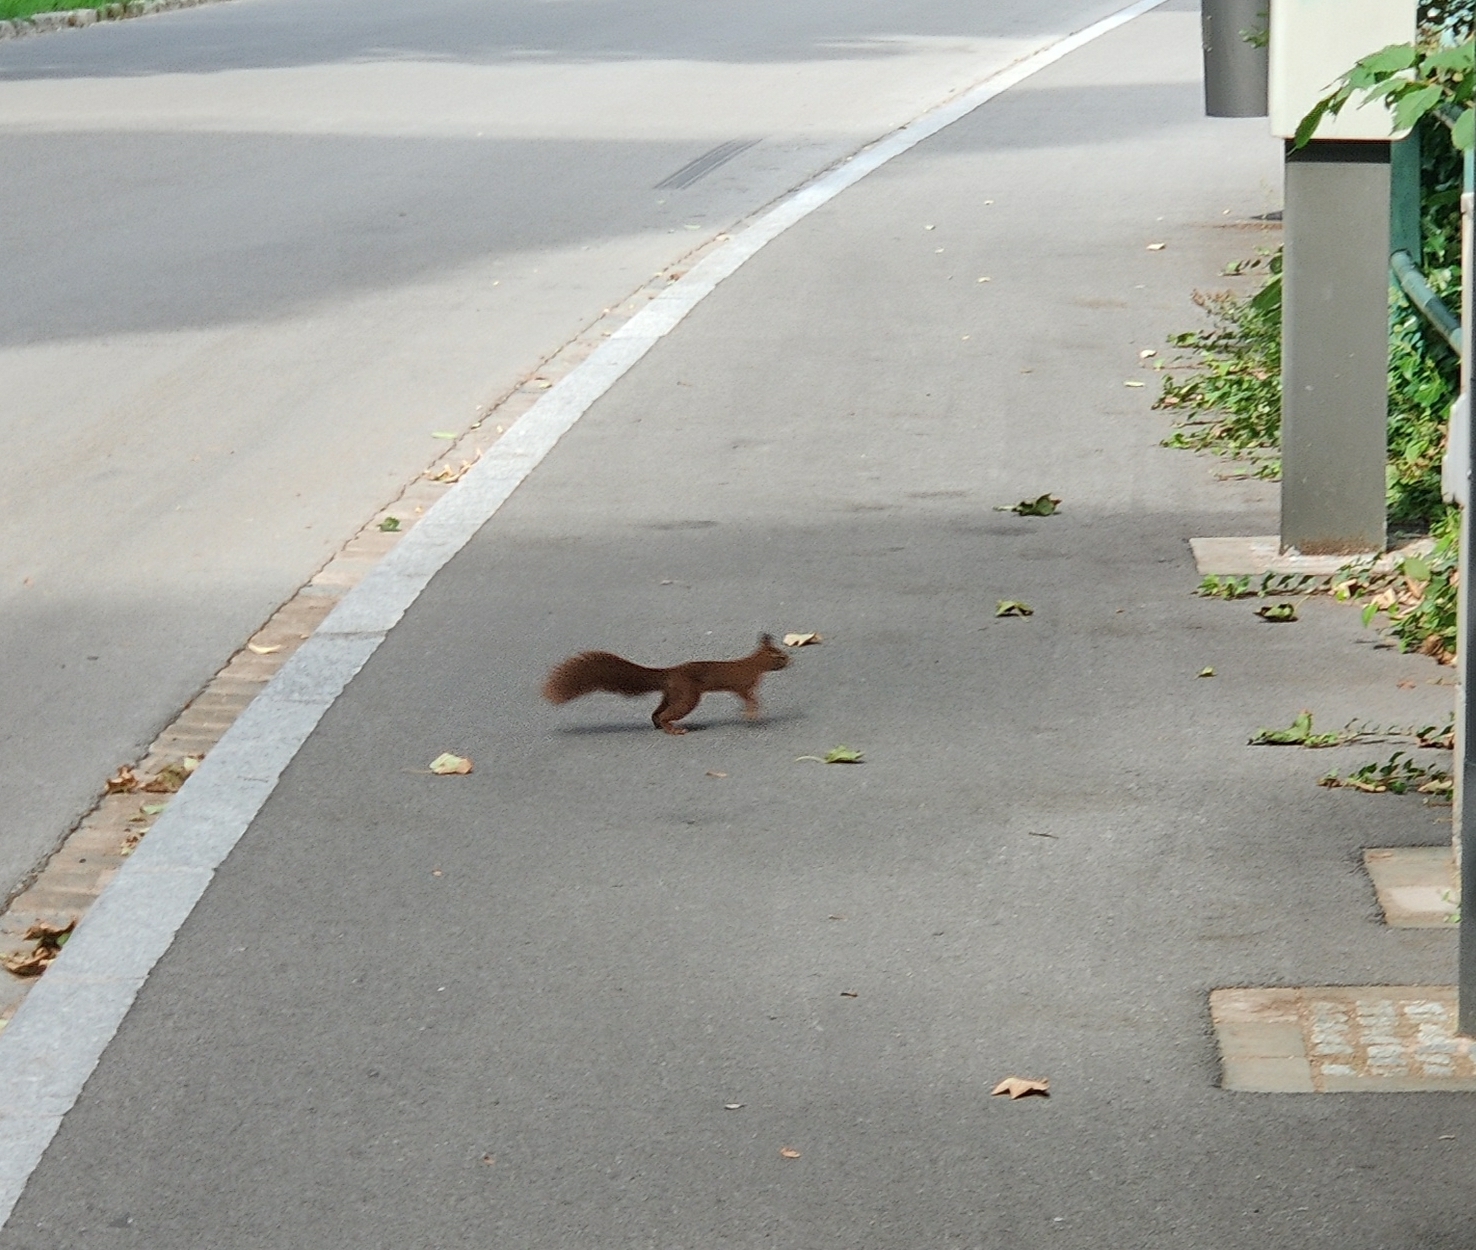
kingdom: Animalia
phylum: Chordata
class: Mammalia
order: Rodentia
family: Sciuridae
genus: Sciurus
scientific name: Sciurus vulgaris
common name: Eurasian red squirrel
